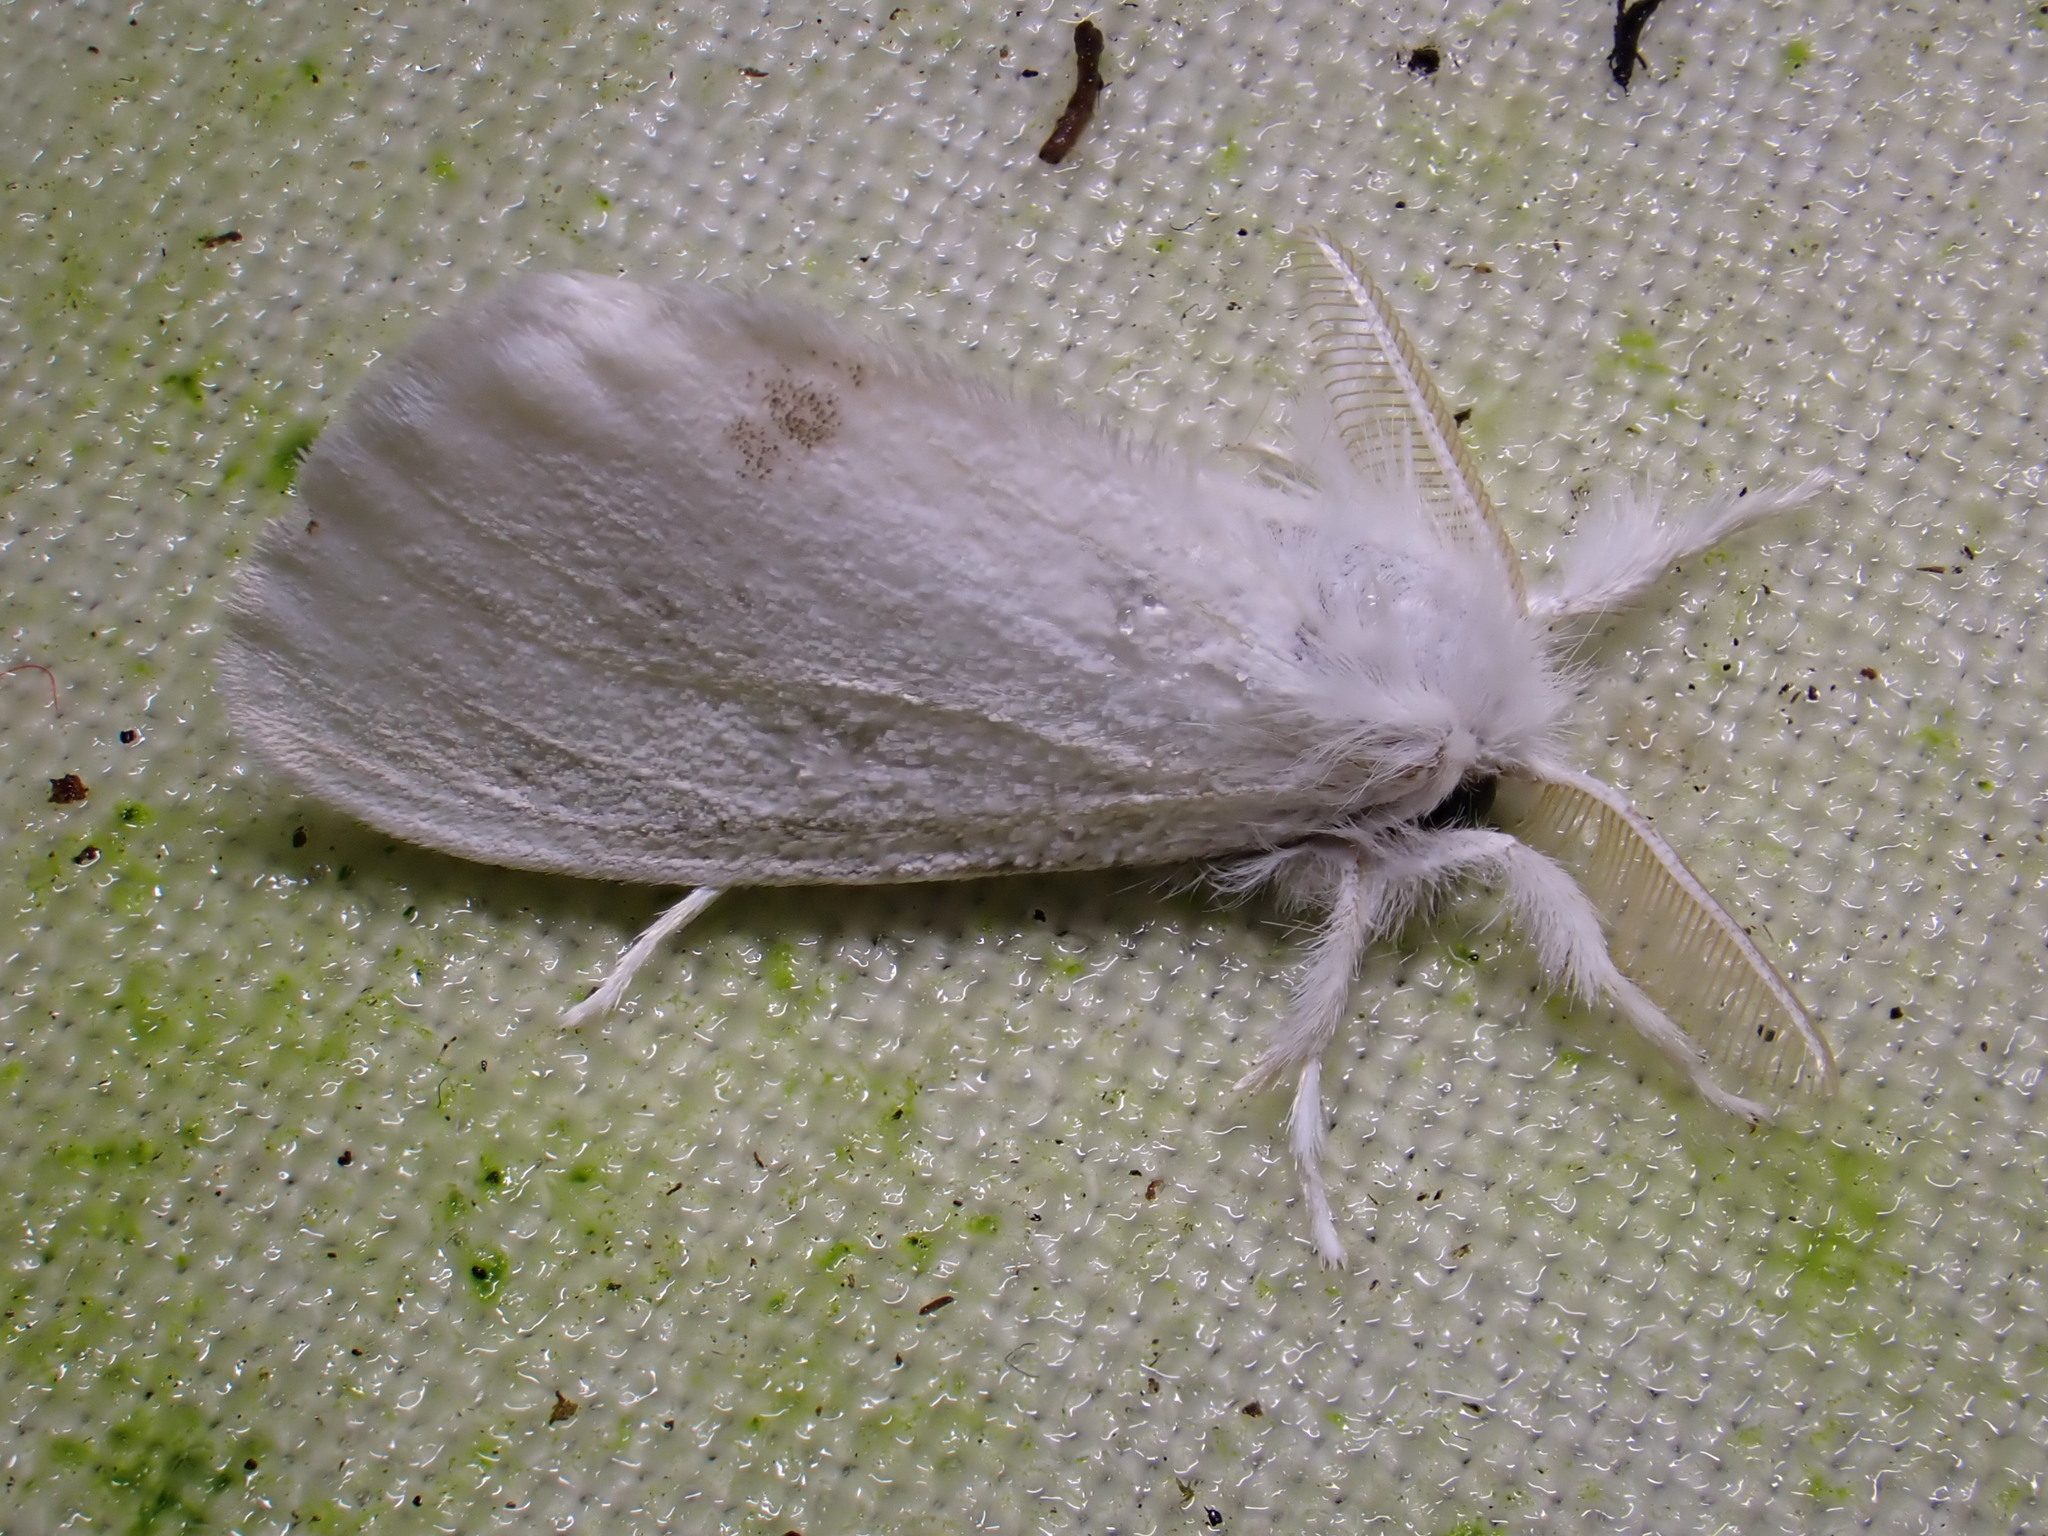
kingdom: Animalia
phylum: Arthropoda
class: Insecta
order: Lepidoptera
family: Erebidae
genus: Sphrageidus
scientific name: Sphrageidus similis
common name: Yellow-tail
